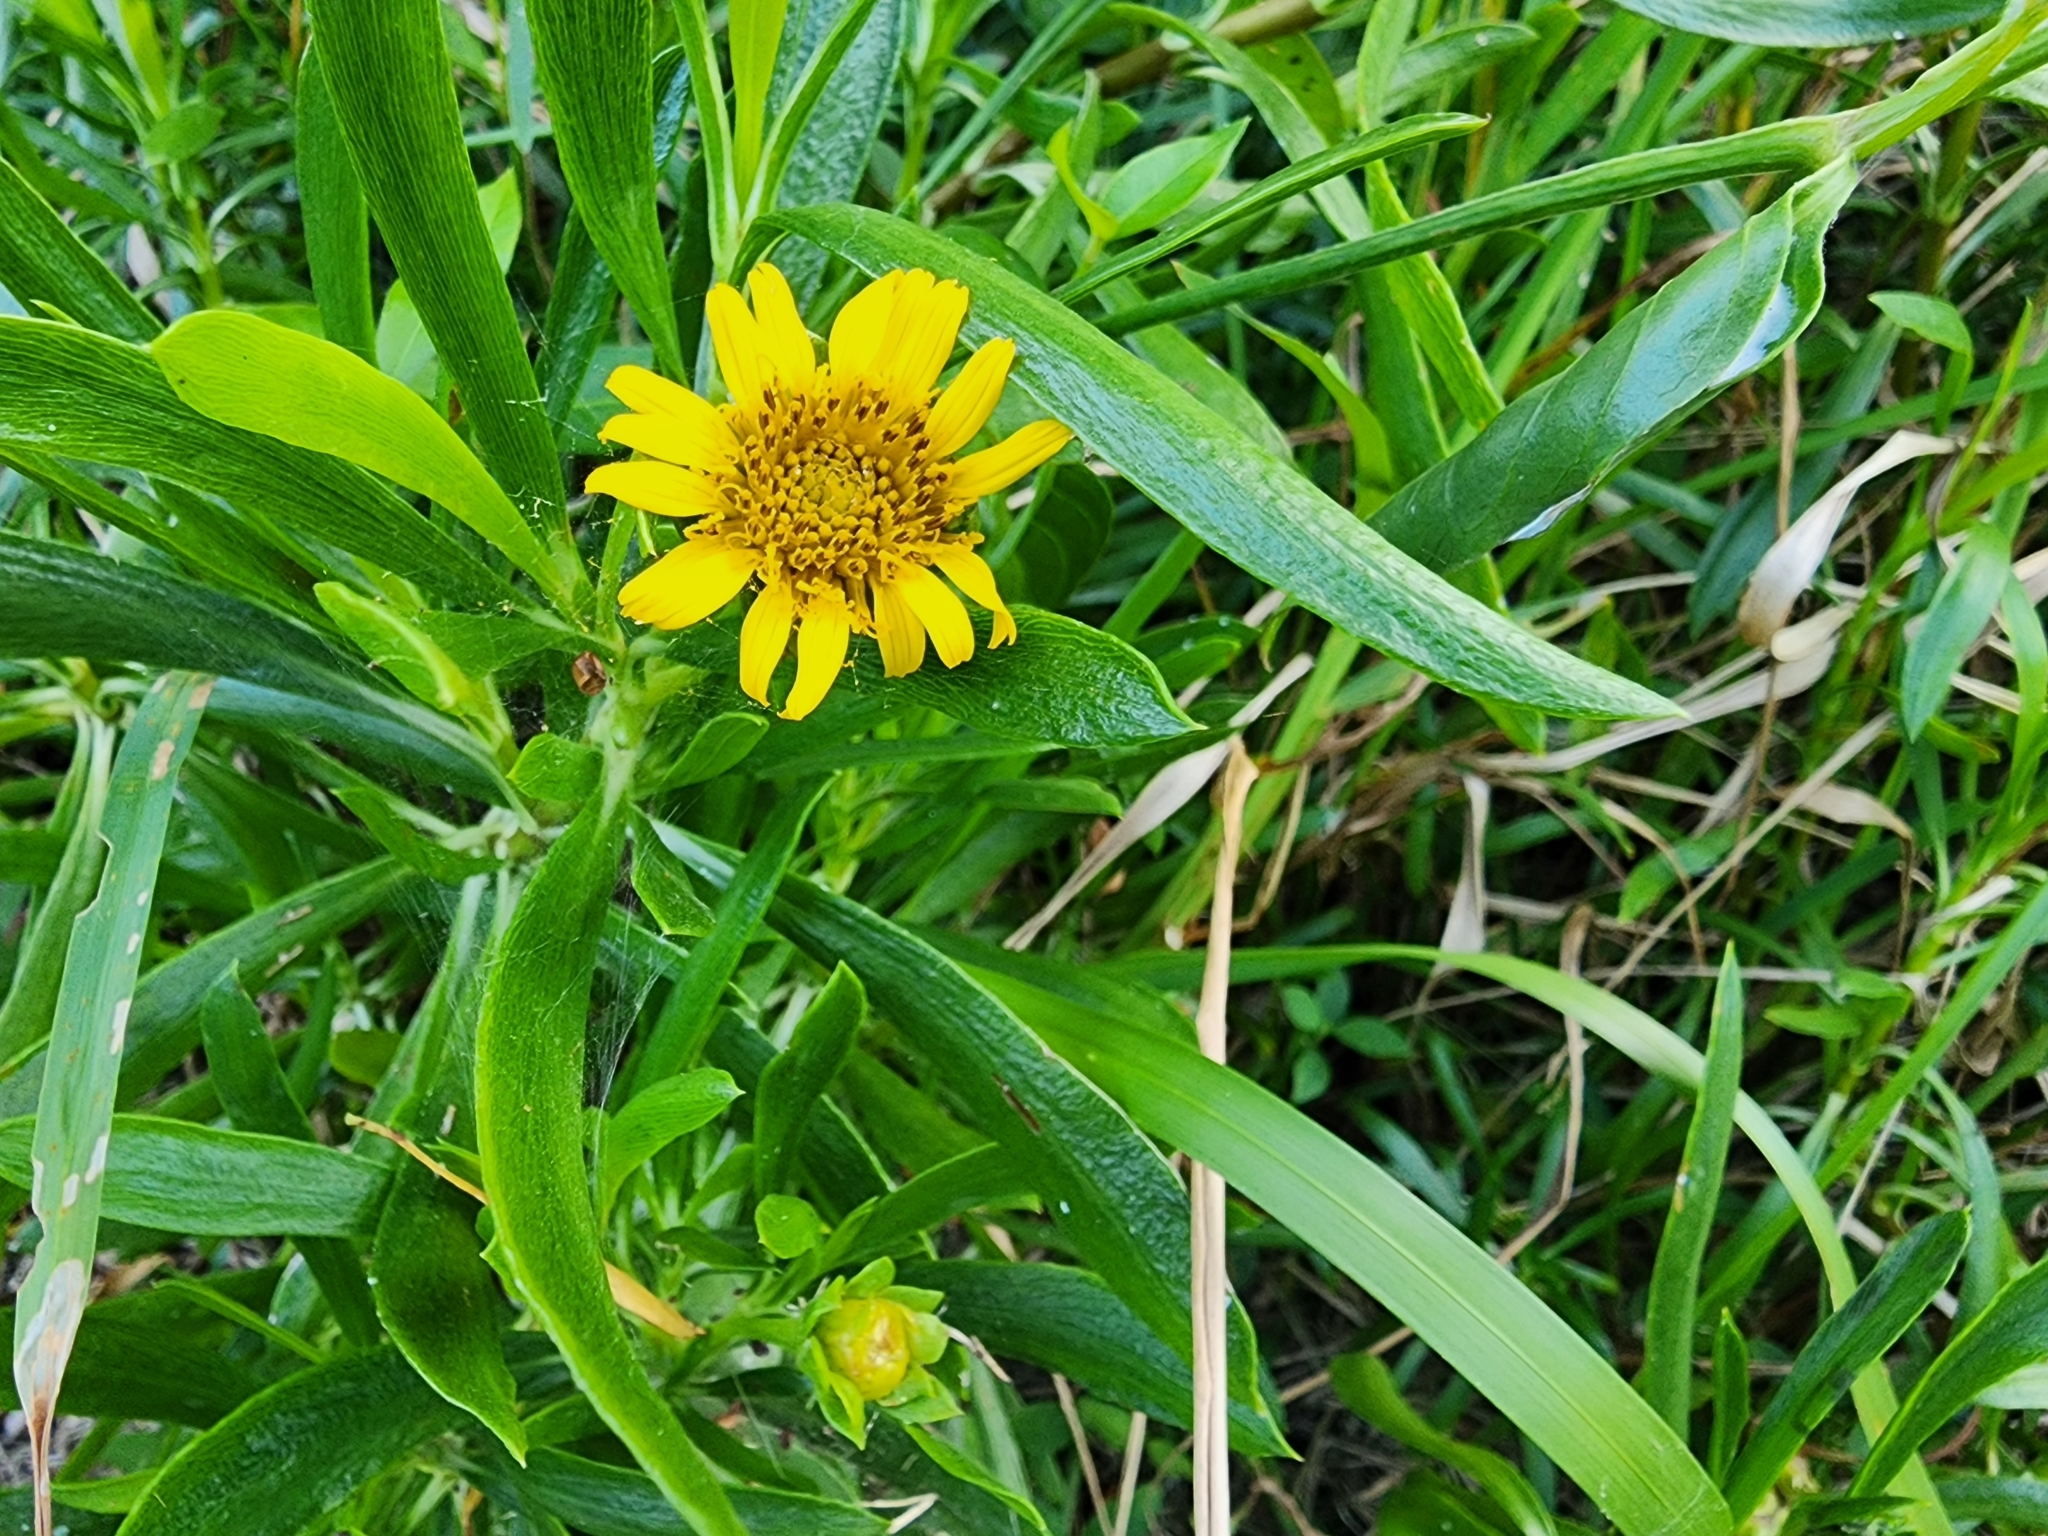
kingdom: Plantae
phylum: Tracheophyta
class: Magnoliopsida
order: Asterales
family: Asteraceae
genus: Borrichia
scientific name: Borrichia arborescens
